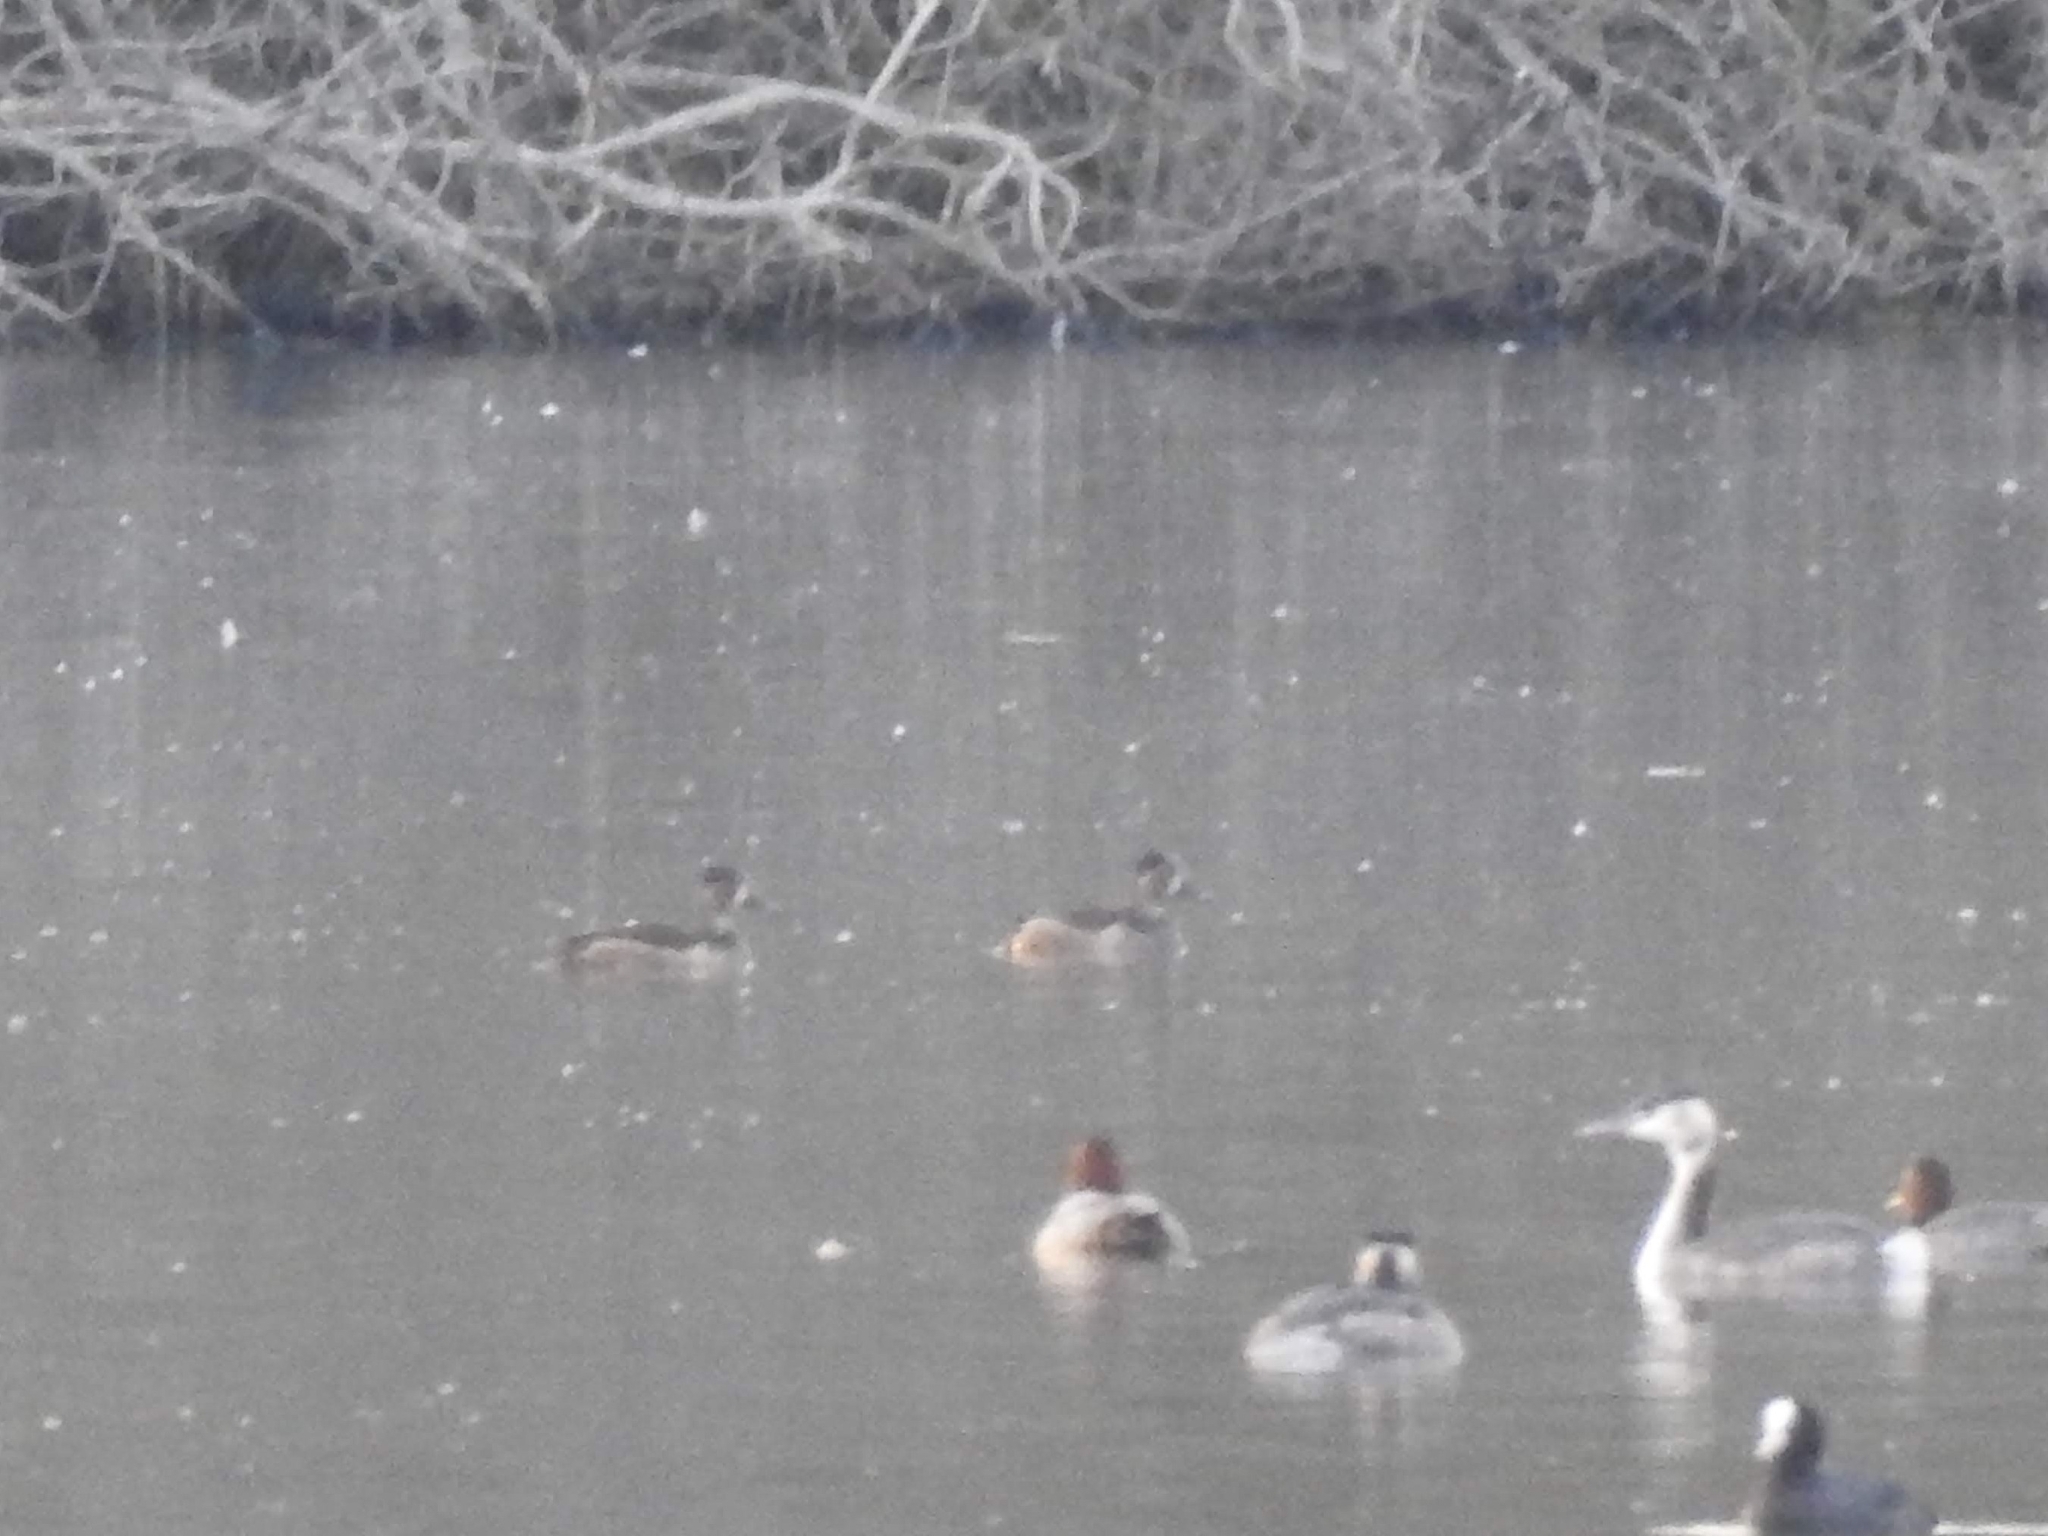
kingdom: Animalia
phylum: Chordata
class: Aves
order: Anseriformes
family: Anatidae
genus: Aythya
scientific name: Aythya collaris
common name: Ring-necked duck
